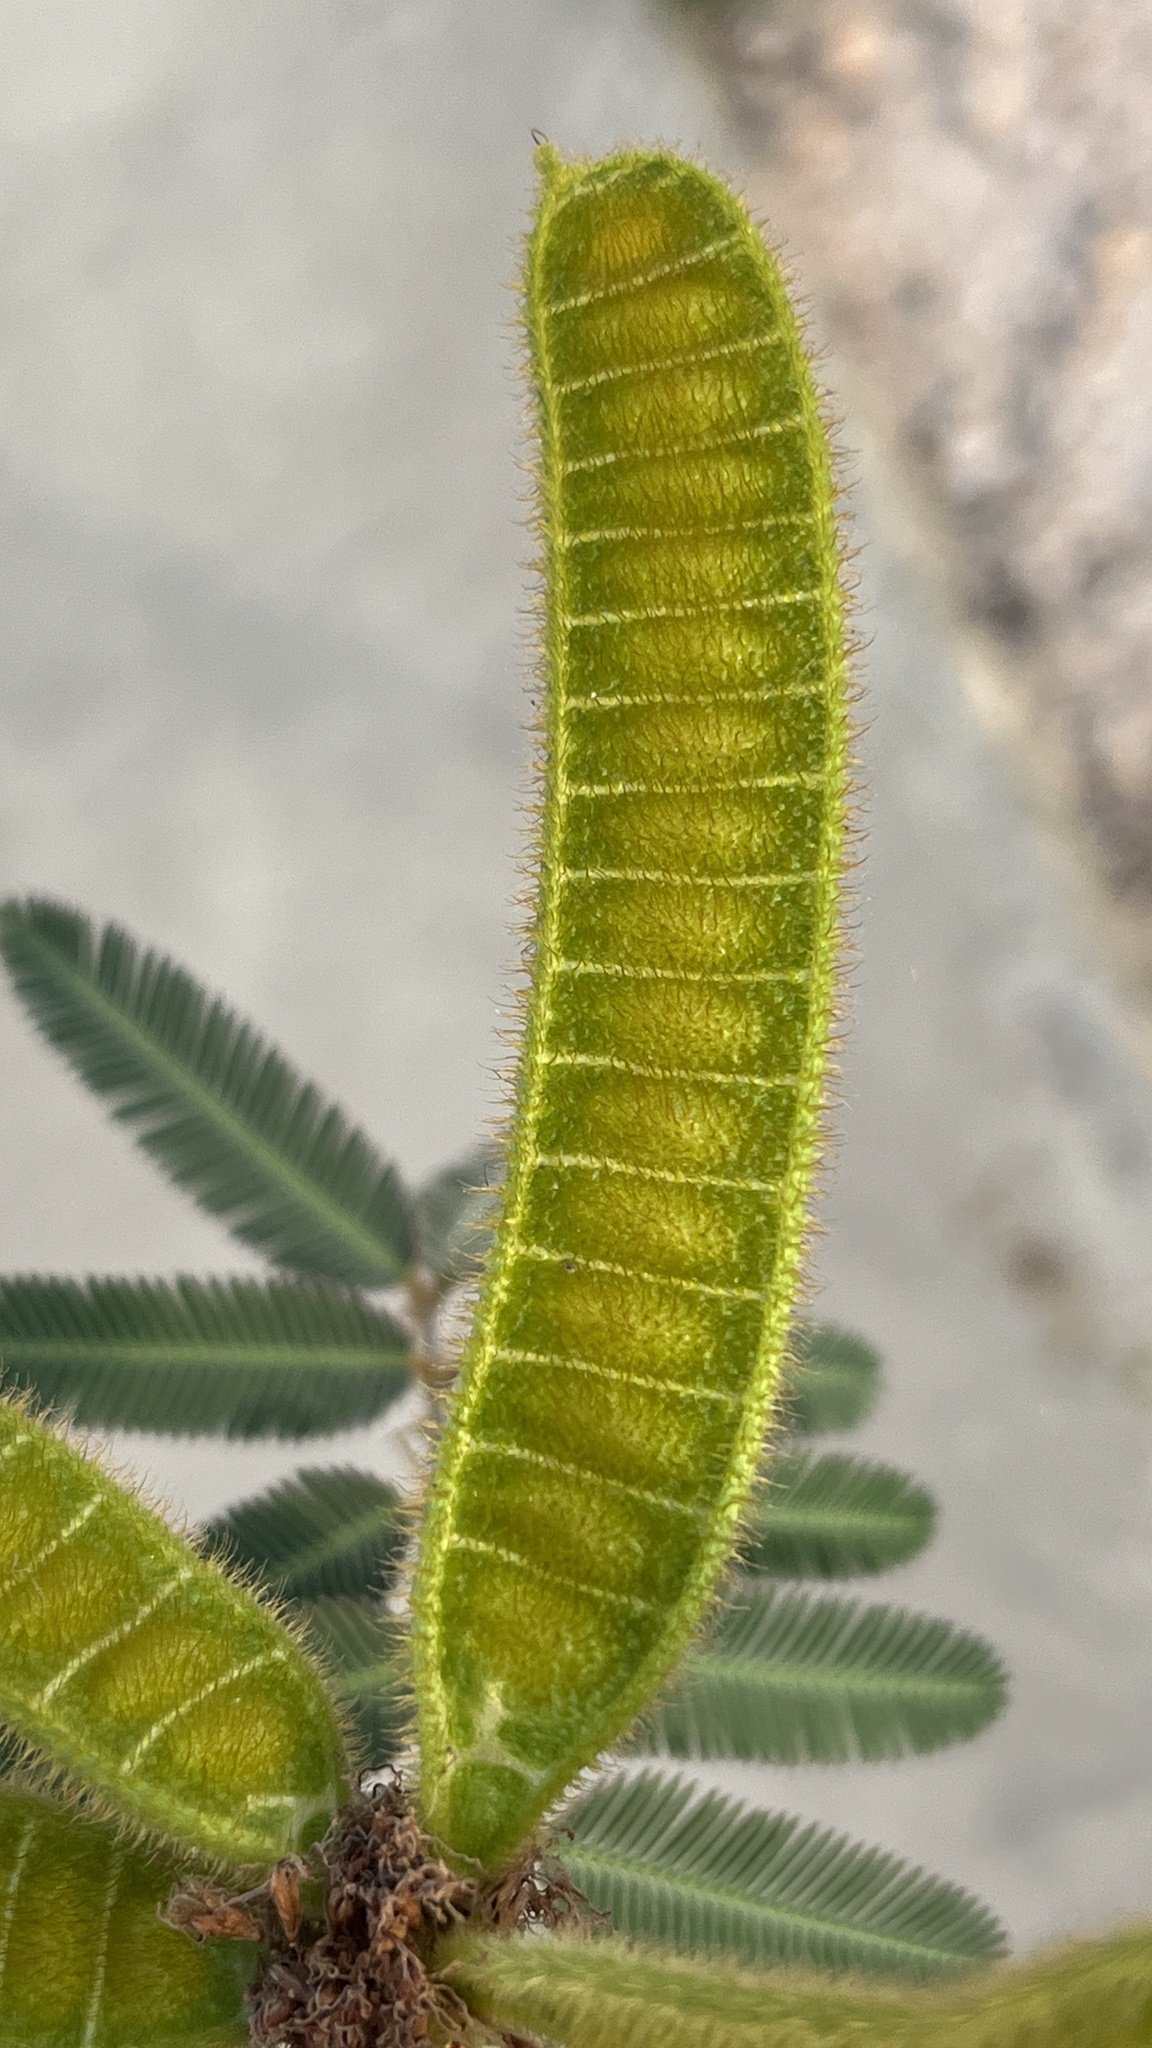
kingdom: Plantae
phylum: Tracheophyta
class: Magnoliopsida
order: Fabales
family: Fabaceae
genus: Mimosa
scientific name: Mimosa pigra
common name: Black mimosa
